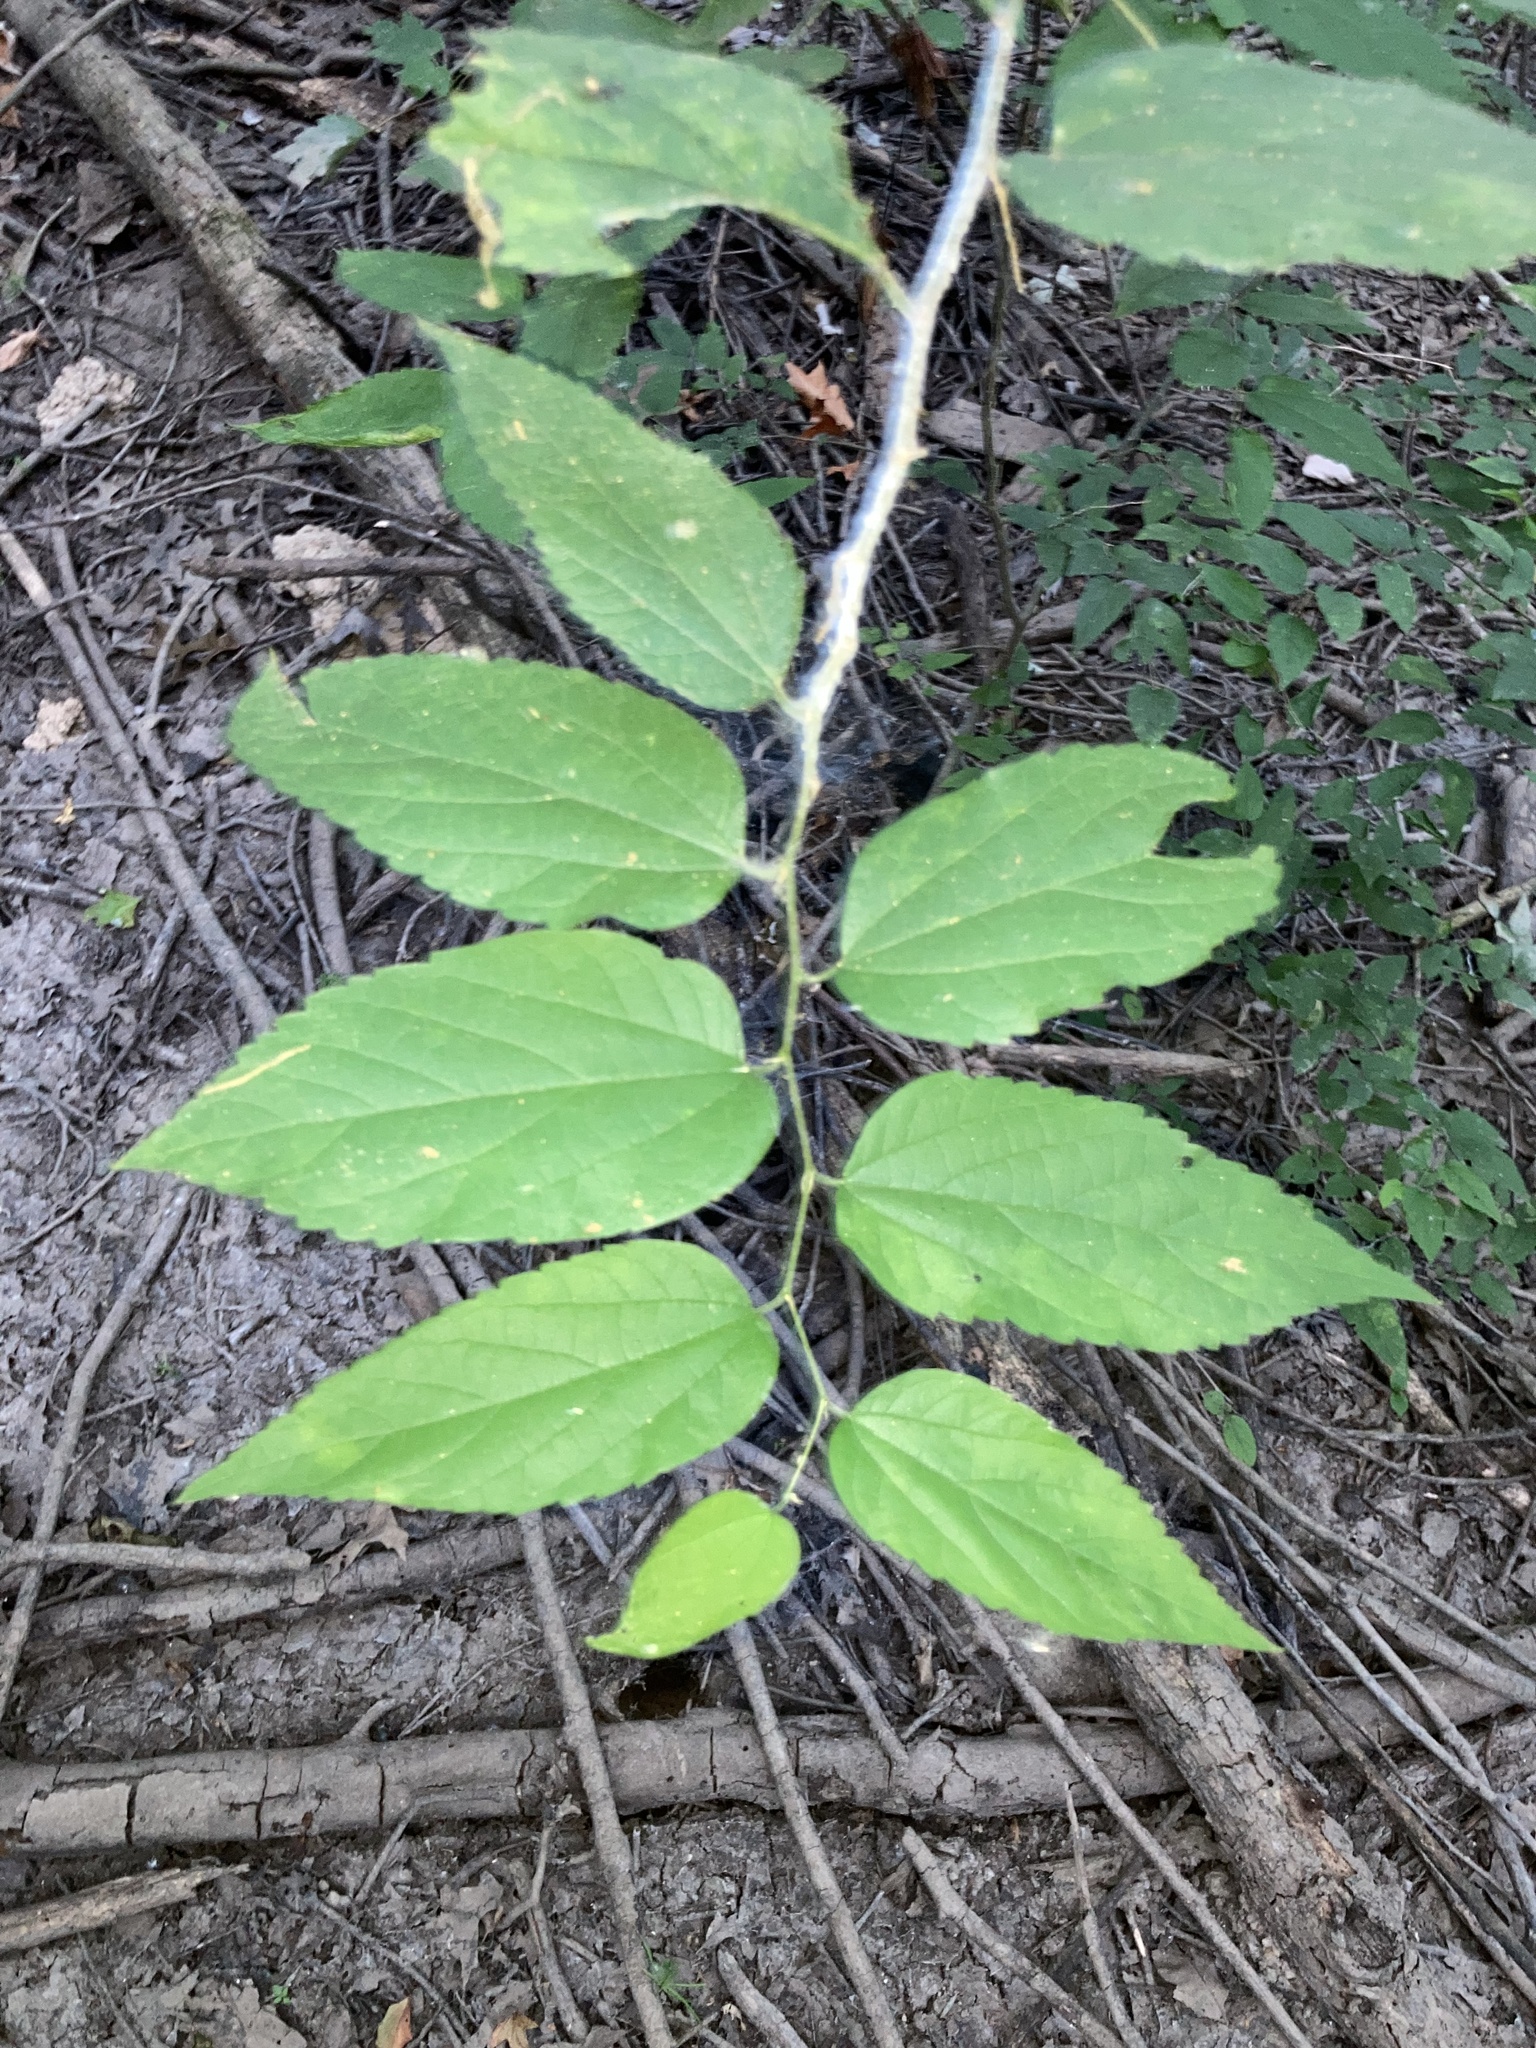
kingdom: Plantae
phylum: Tracheophyta
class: Magnoliopsida
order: Rosales
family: Cannabaceae
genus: Celtis
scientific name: Celtis laevigata
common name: Sugarberry
